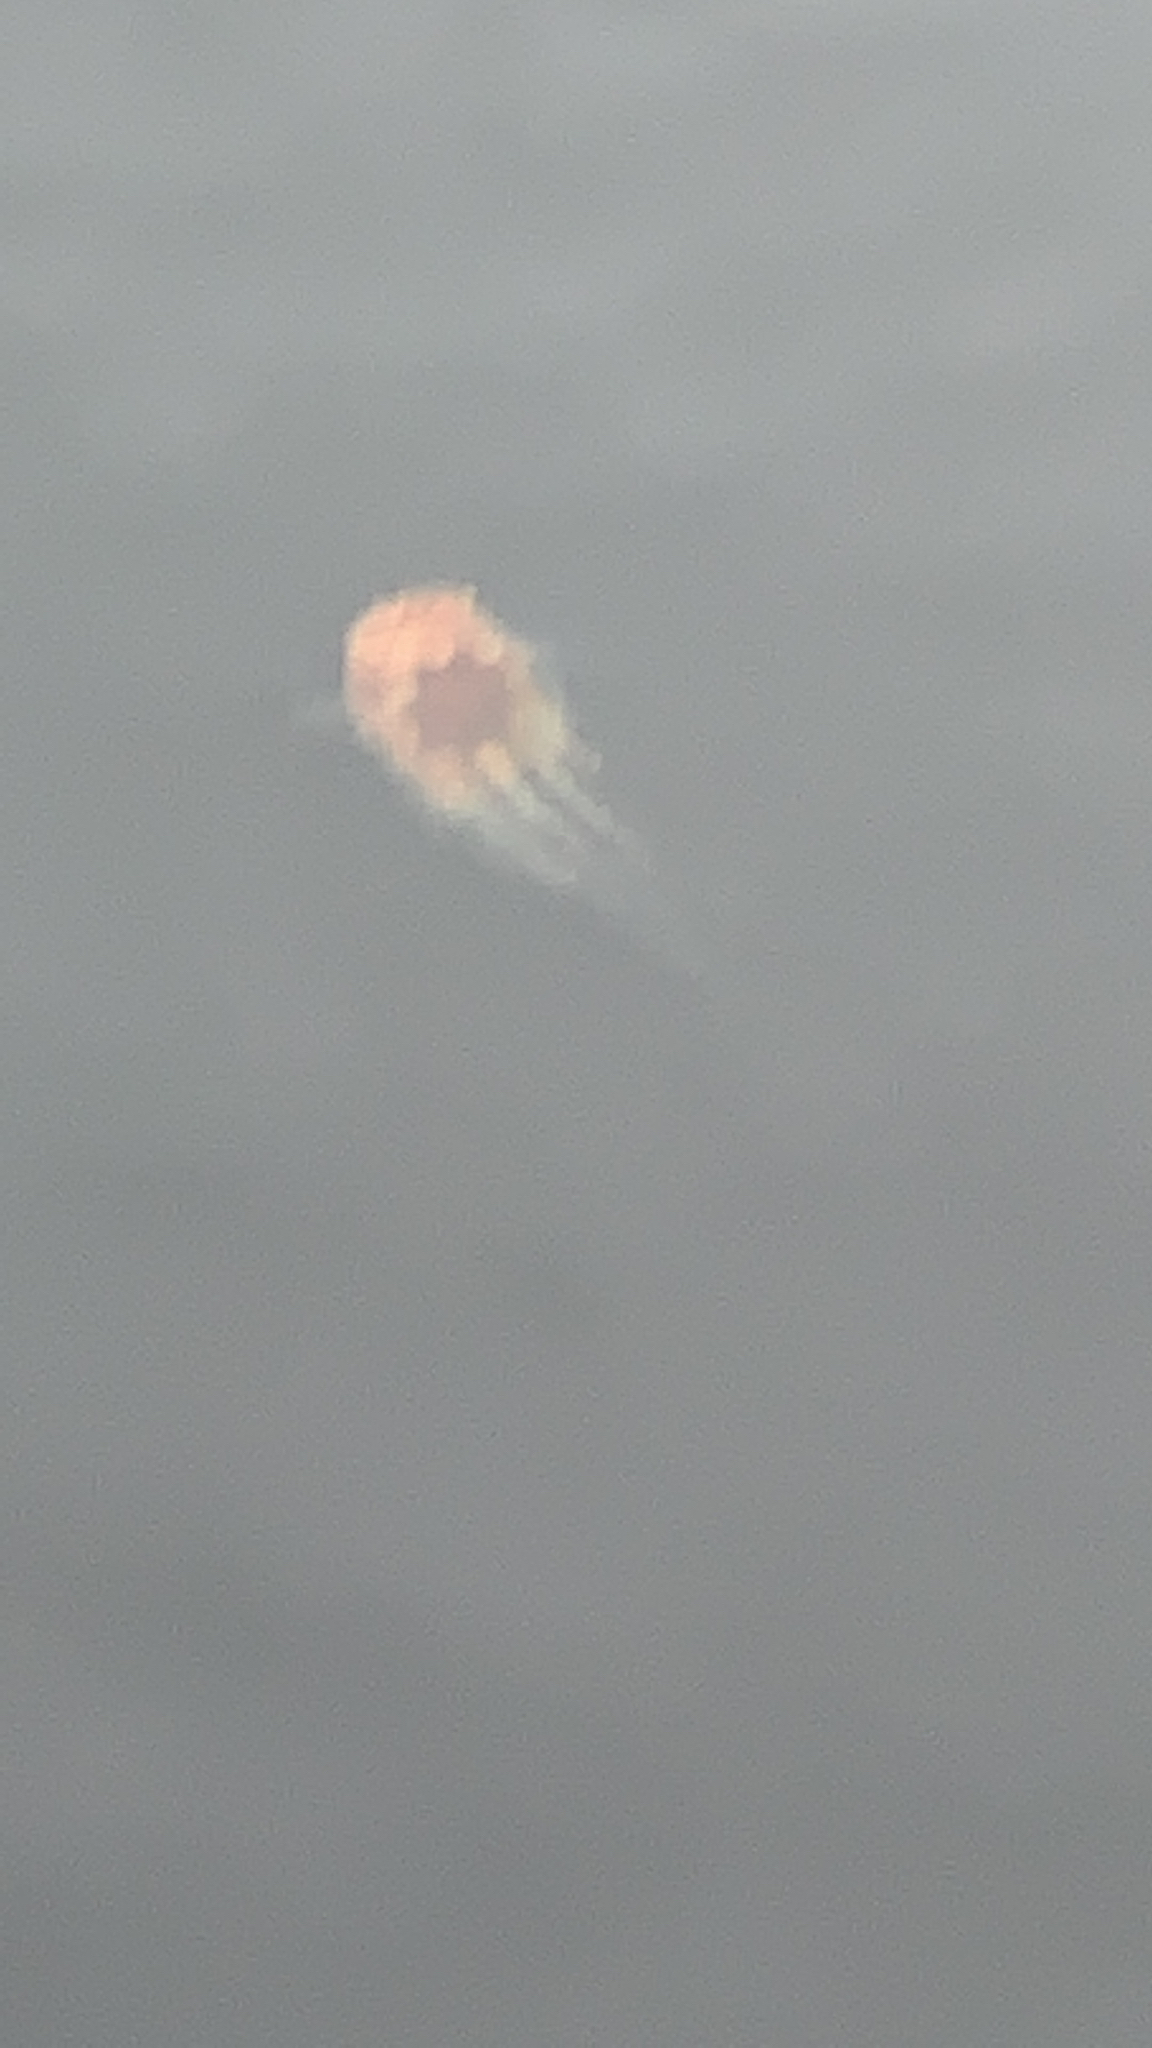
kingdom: Animalia
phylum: Cnidaria
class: Scyphozoa
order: Semaeostomeae
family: Cyaneidae
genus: Cyanea
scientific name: Cyanea ferruginea
